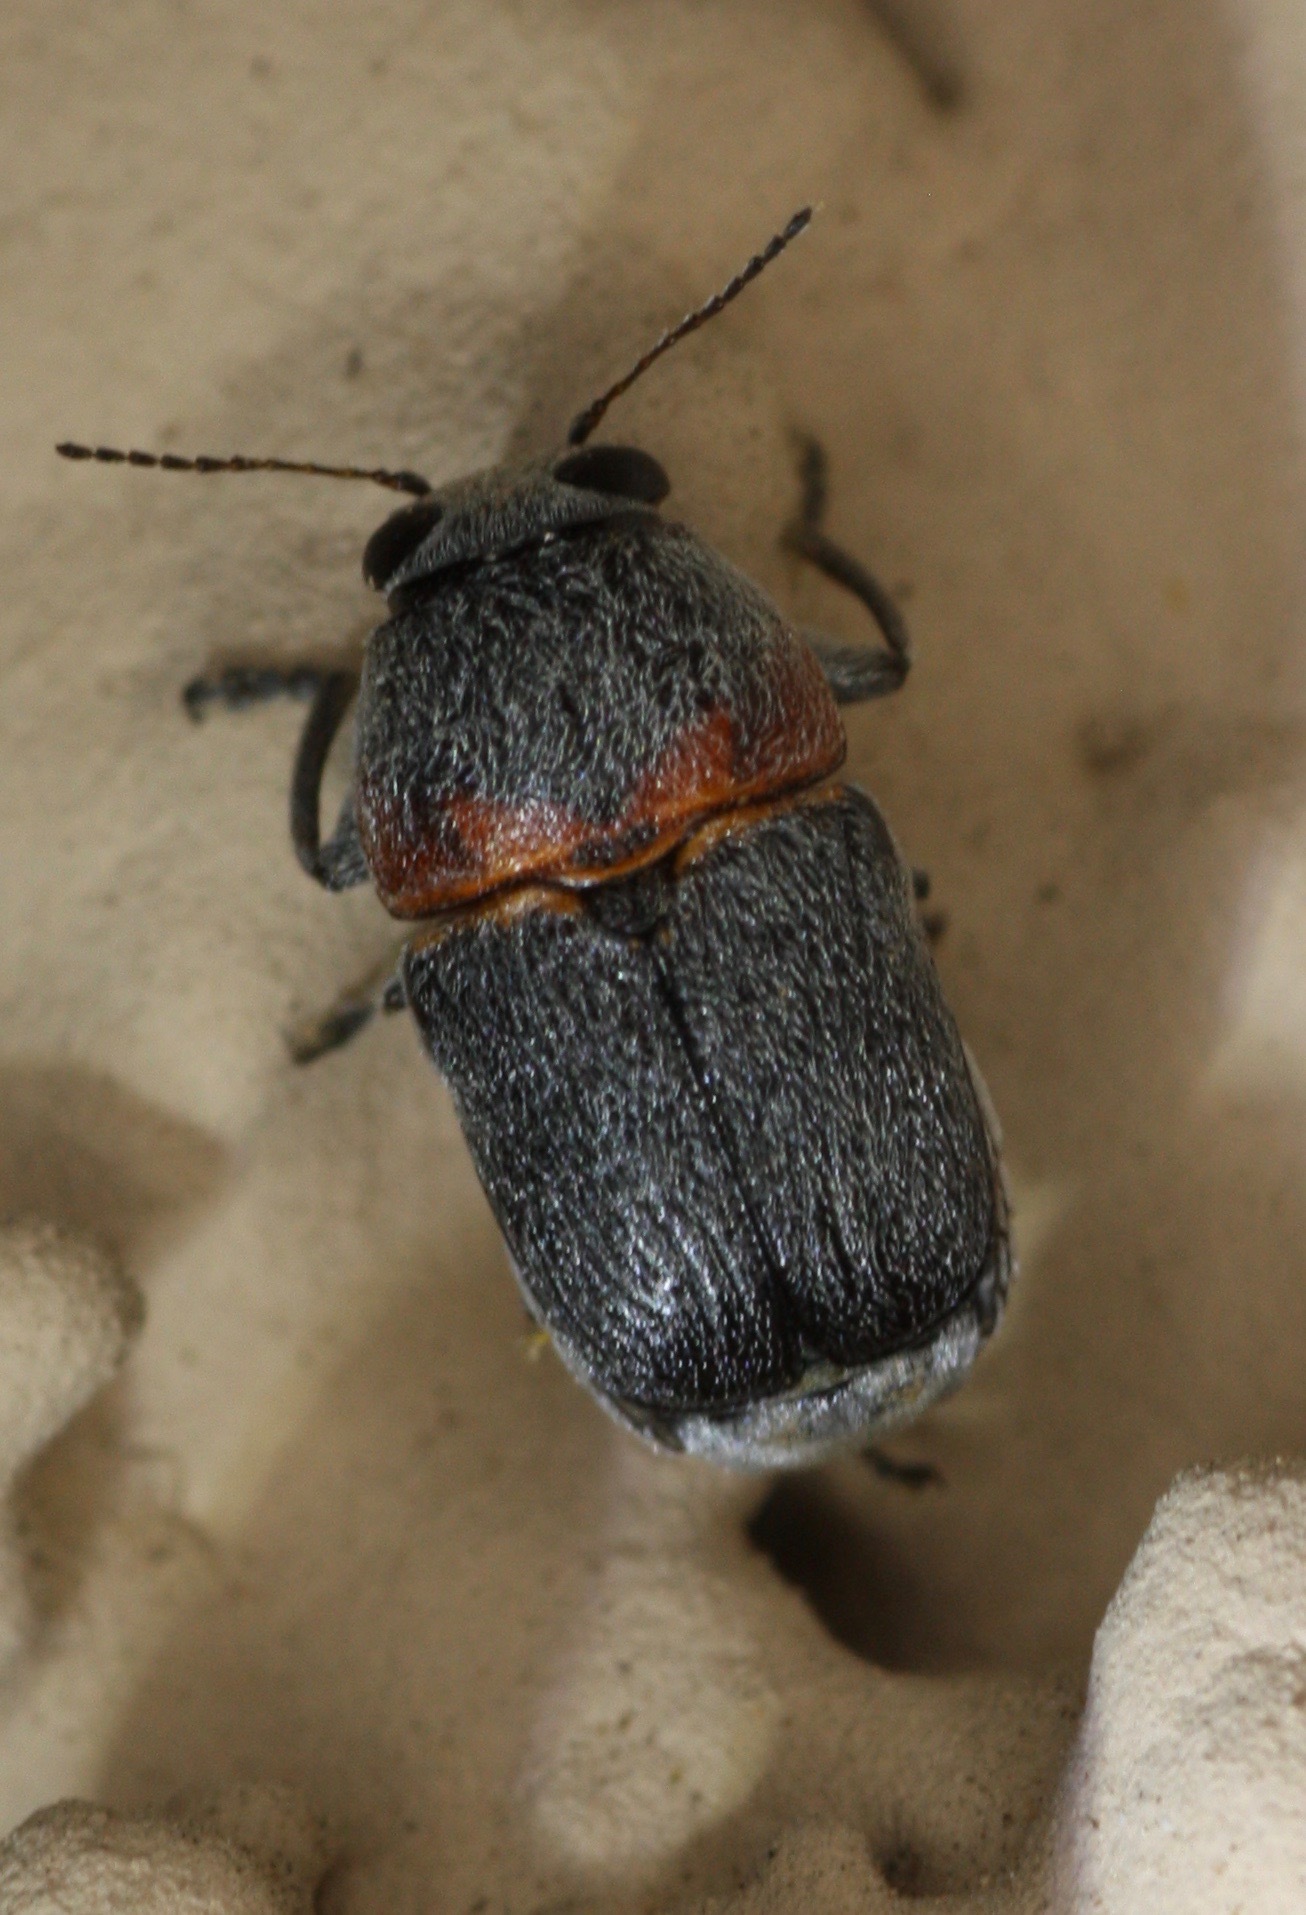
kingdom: Animalia
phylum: Arthropoda
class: Insecta
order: Coleoptera
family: Chrysomelidae
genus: Pachybrachis
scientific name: Pachybrachis thoracicus
